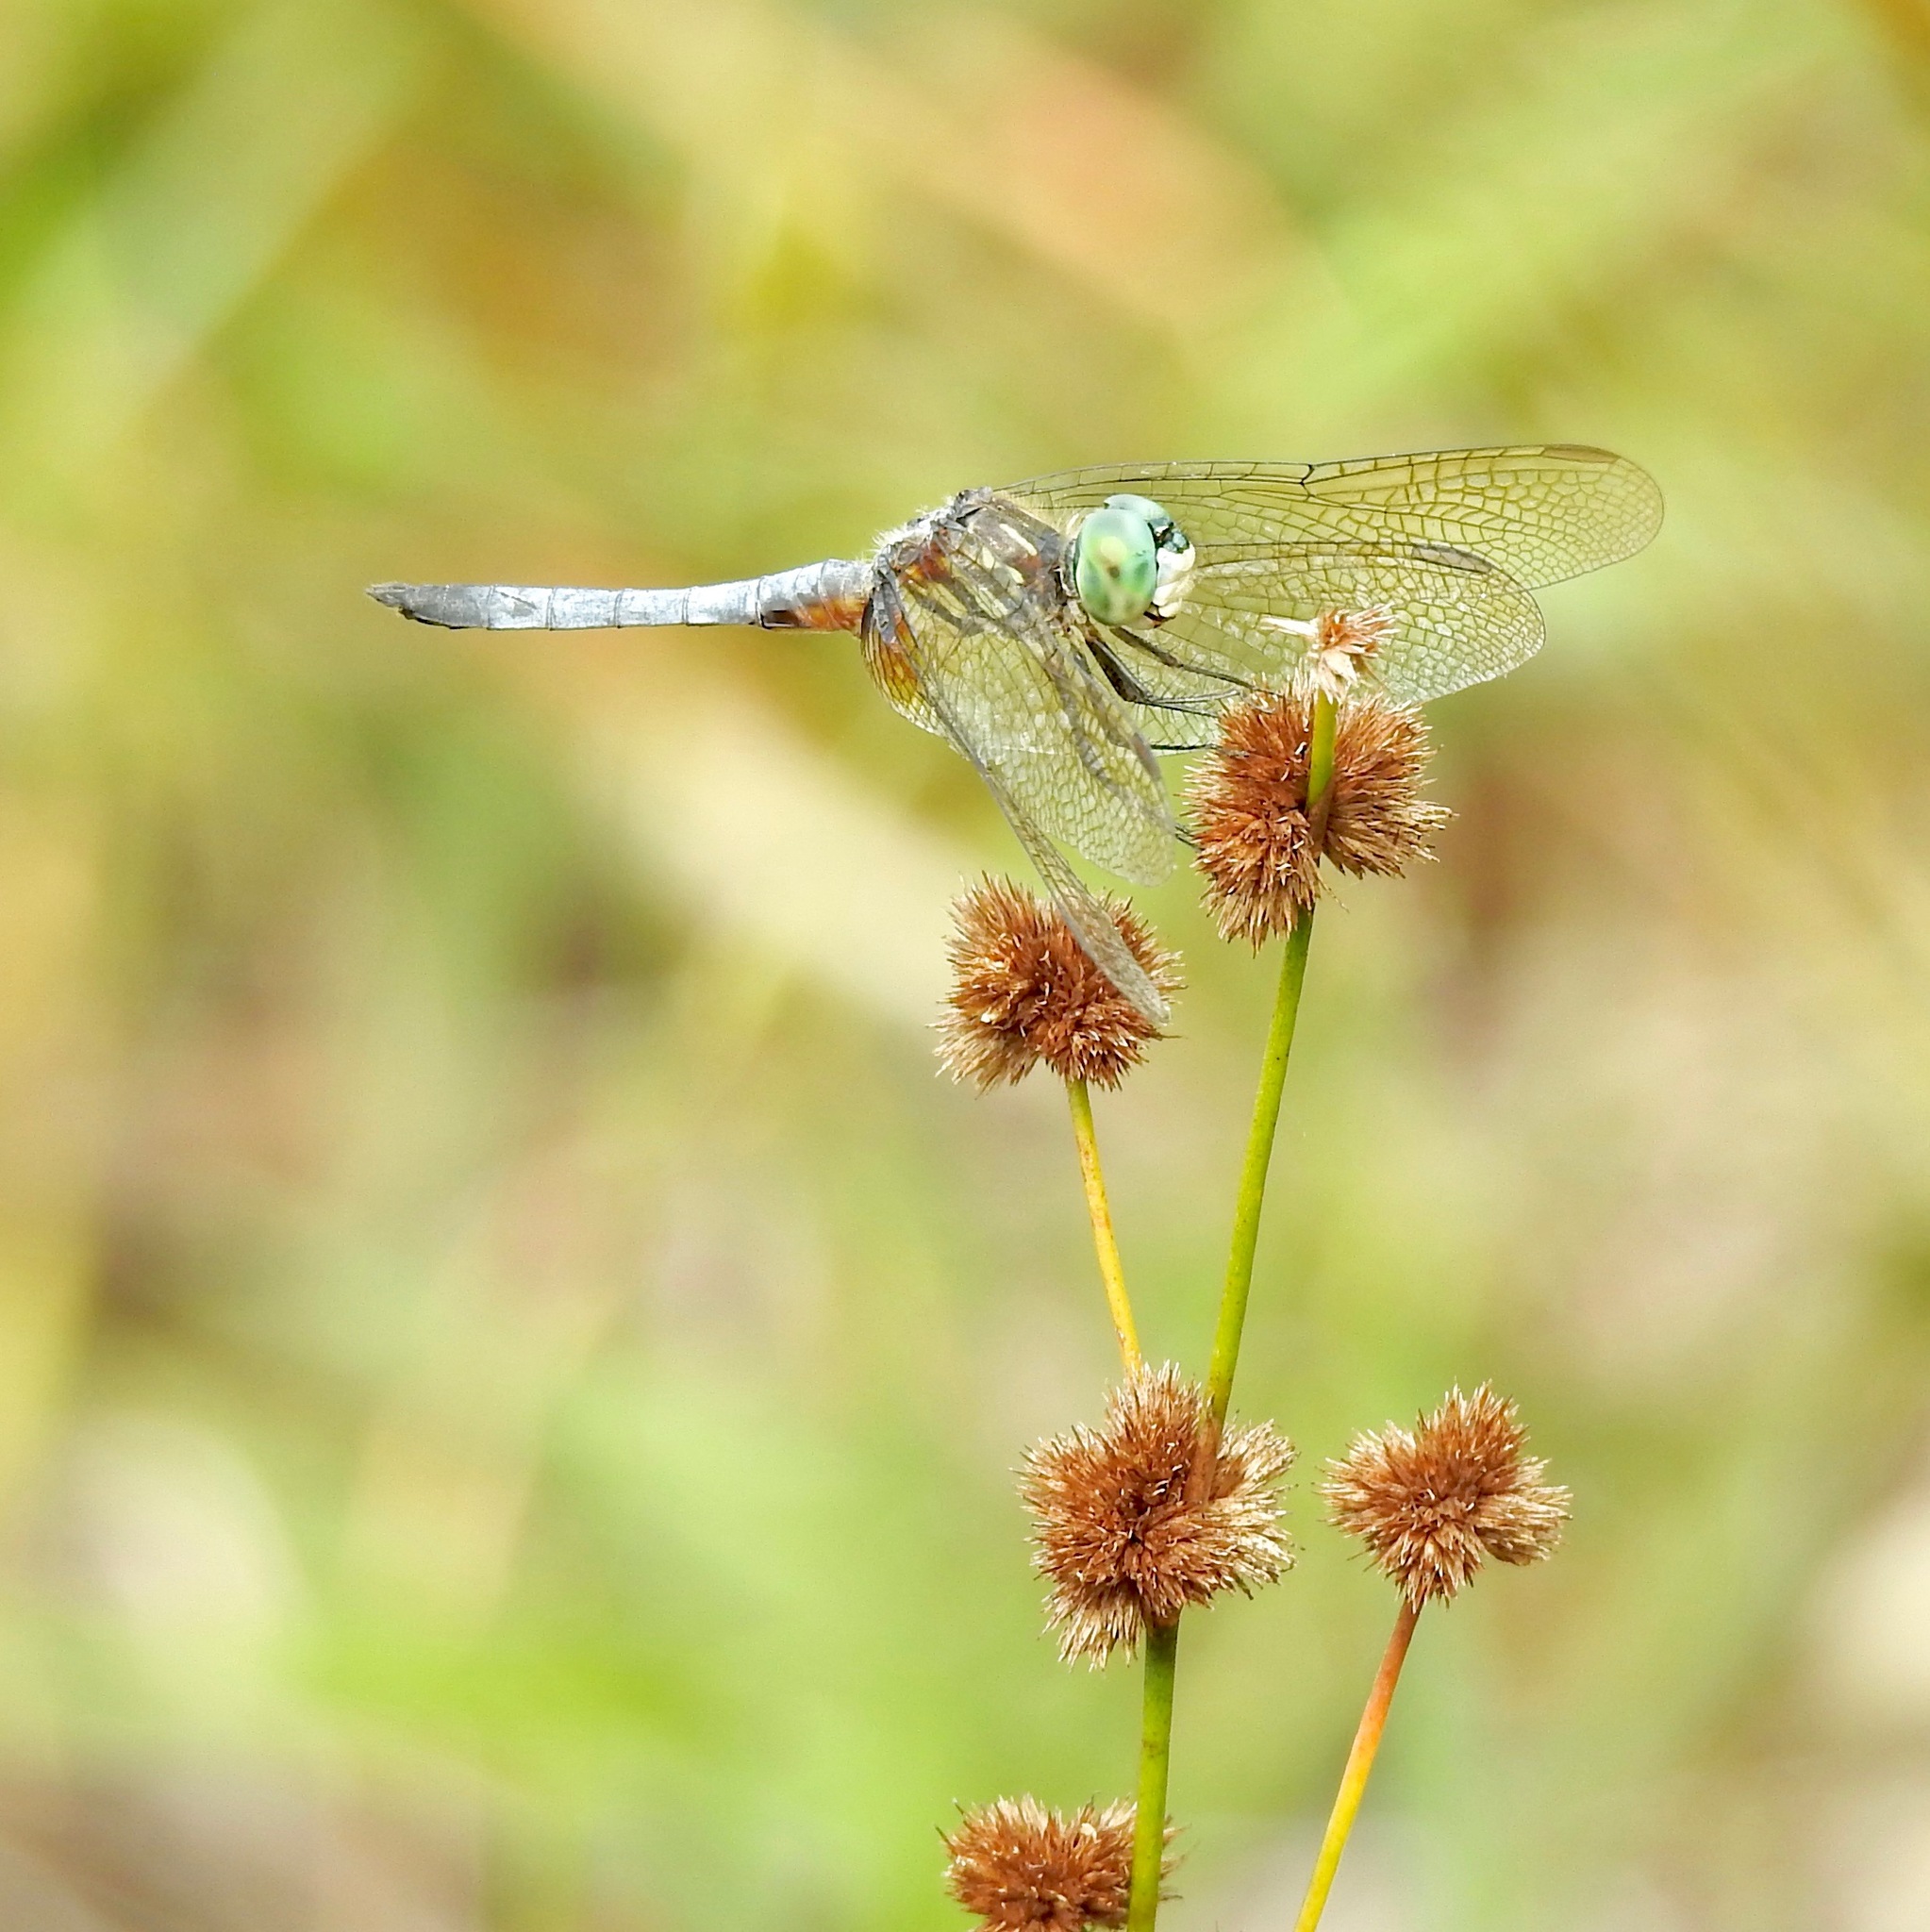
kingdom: Animalia
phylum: Arthropoda
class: Insecta
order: Odonata
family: Libellulidae
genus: Pachydiplax
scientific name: Pachydiplax longipennis
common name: Blue dasher
